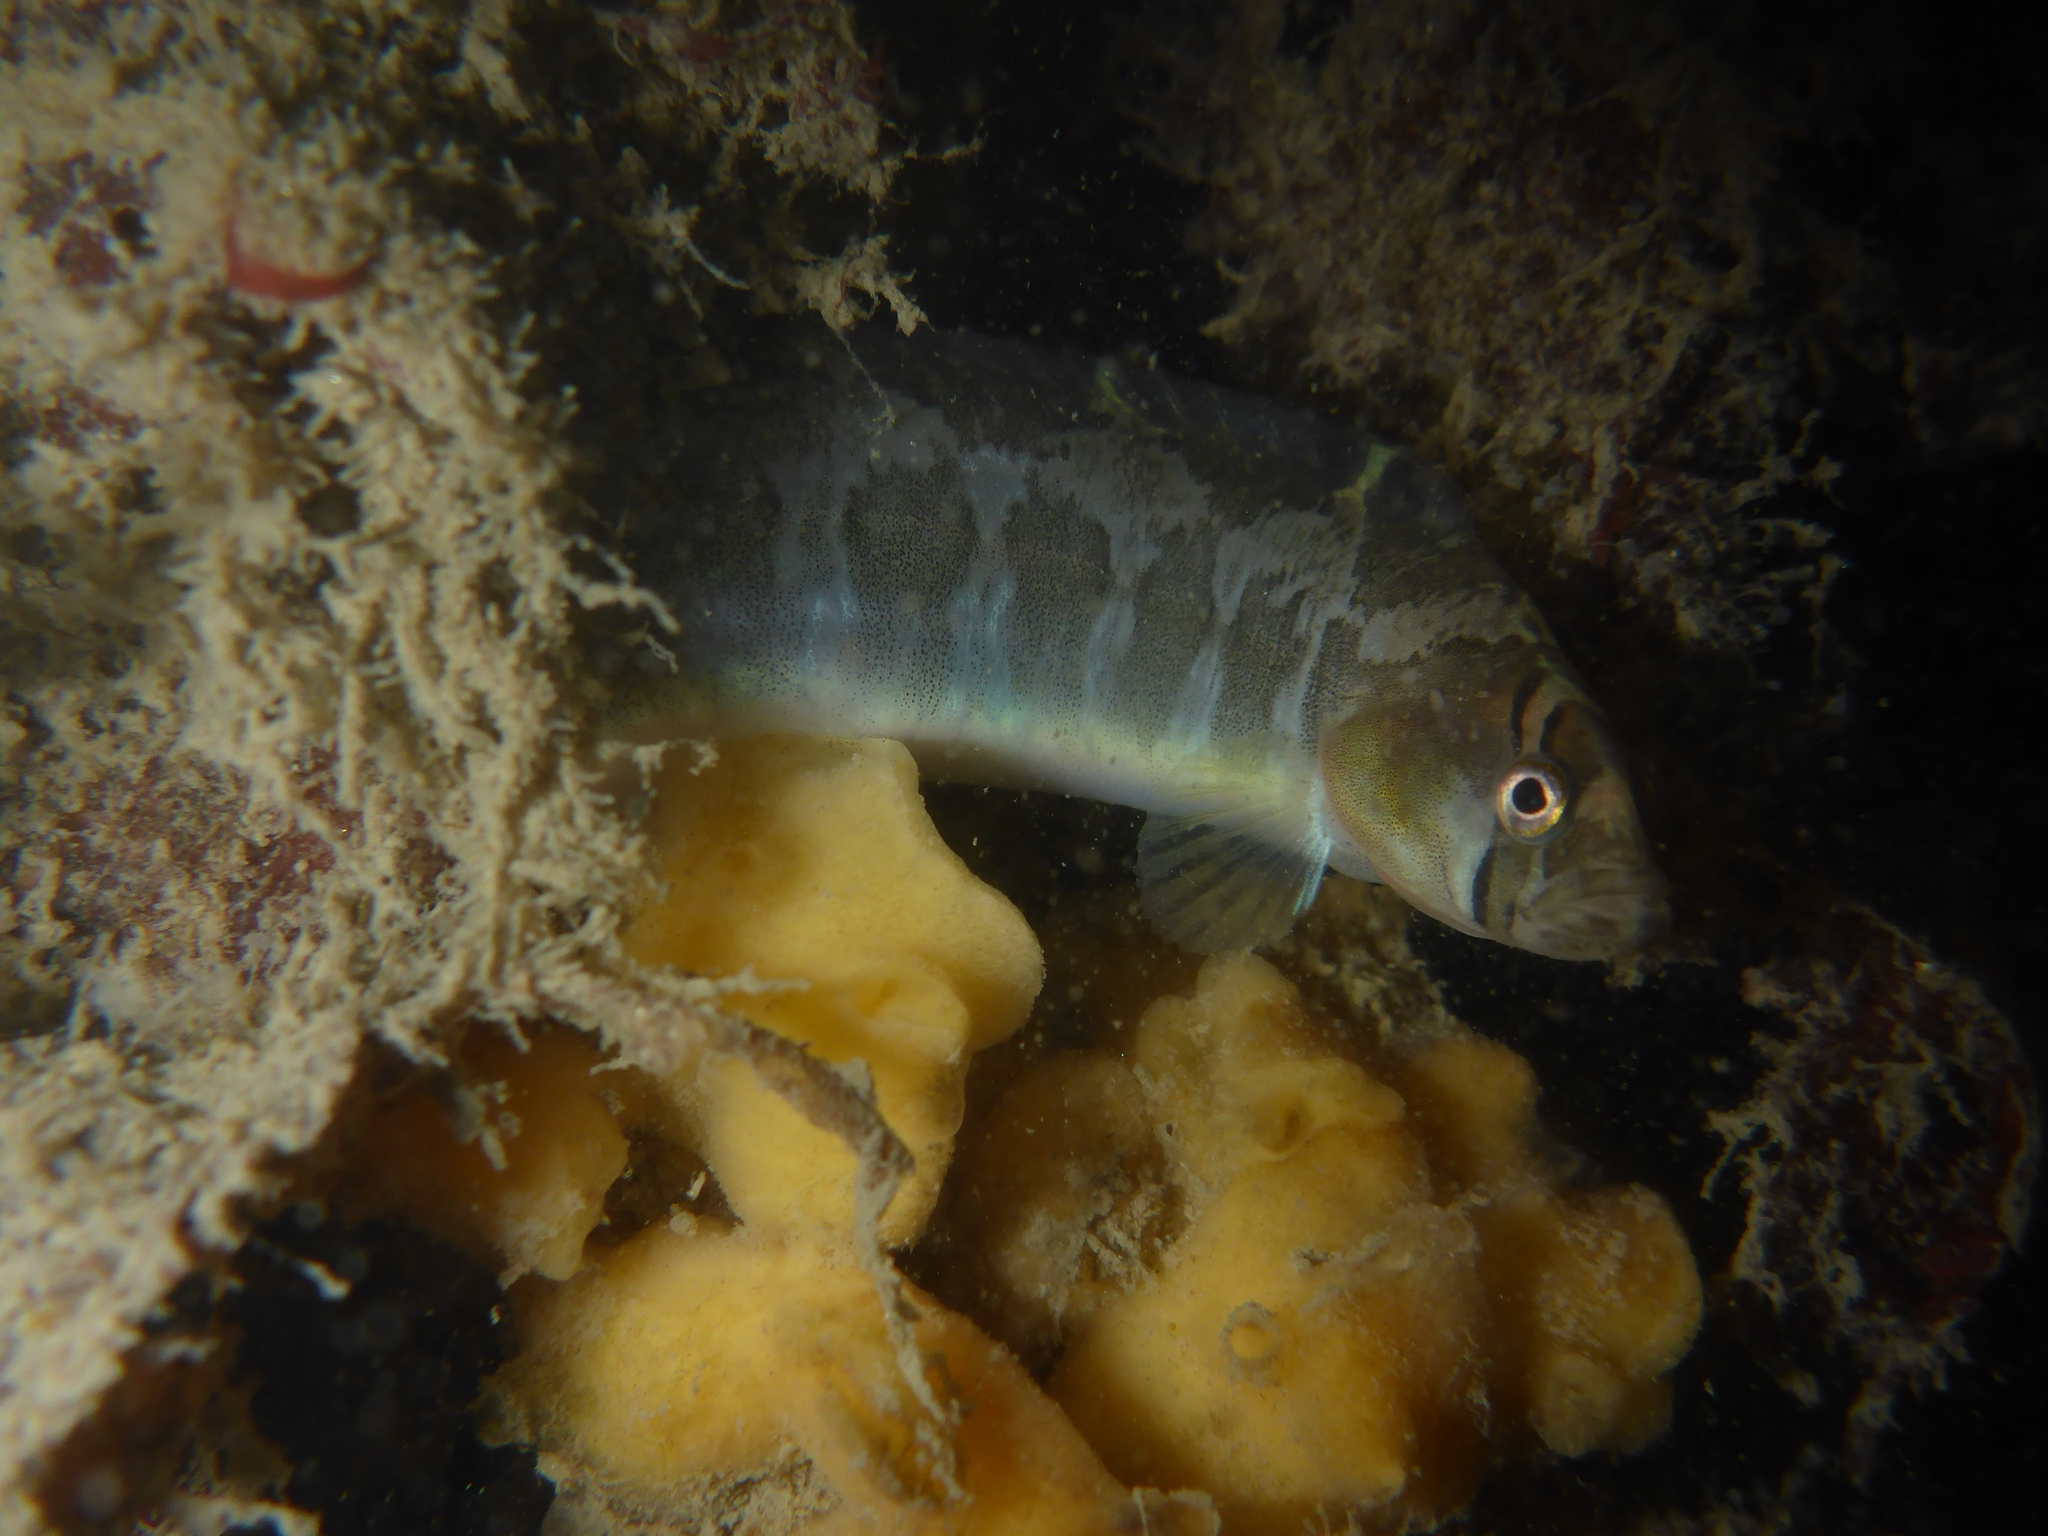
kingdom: Animalia
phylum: Chordata
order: Perciformes
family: Pholidae
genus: Pholis
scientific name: Pholis ornata
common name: Saddleback gunnel
